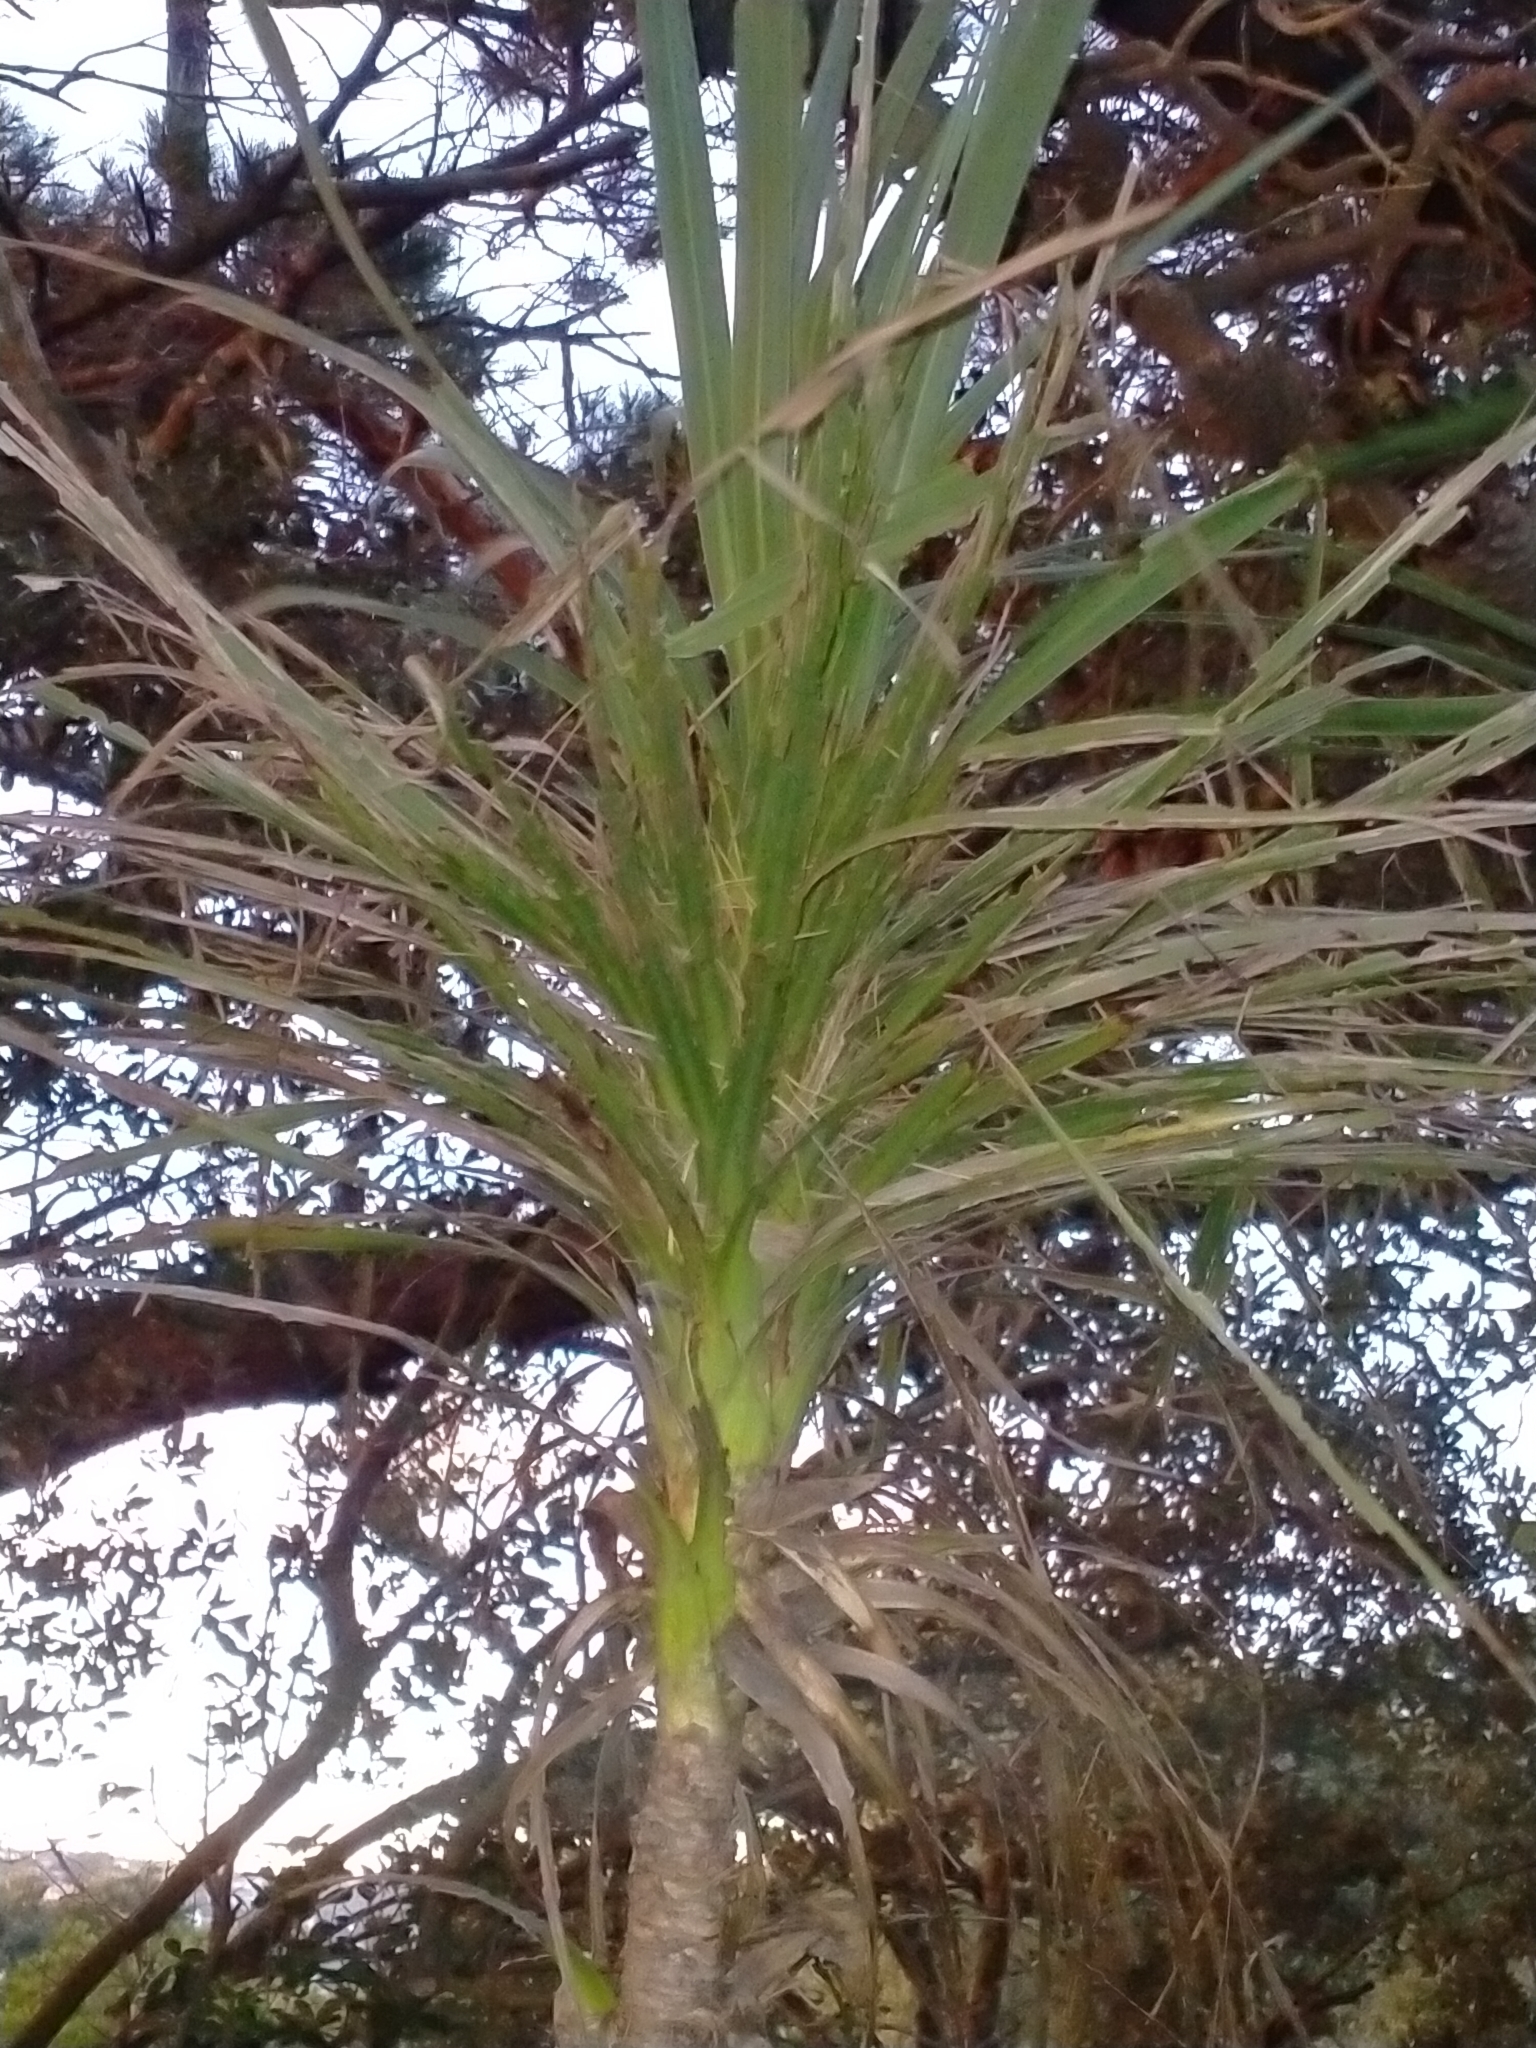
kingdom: Plantae
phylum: Tracheophyta
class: Liliopsida
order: Asparagales
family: Asparagaceae
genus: Cordyline
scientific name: Cordyline australis
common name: Cabbage-palm
